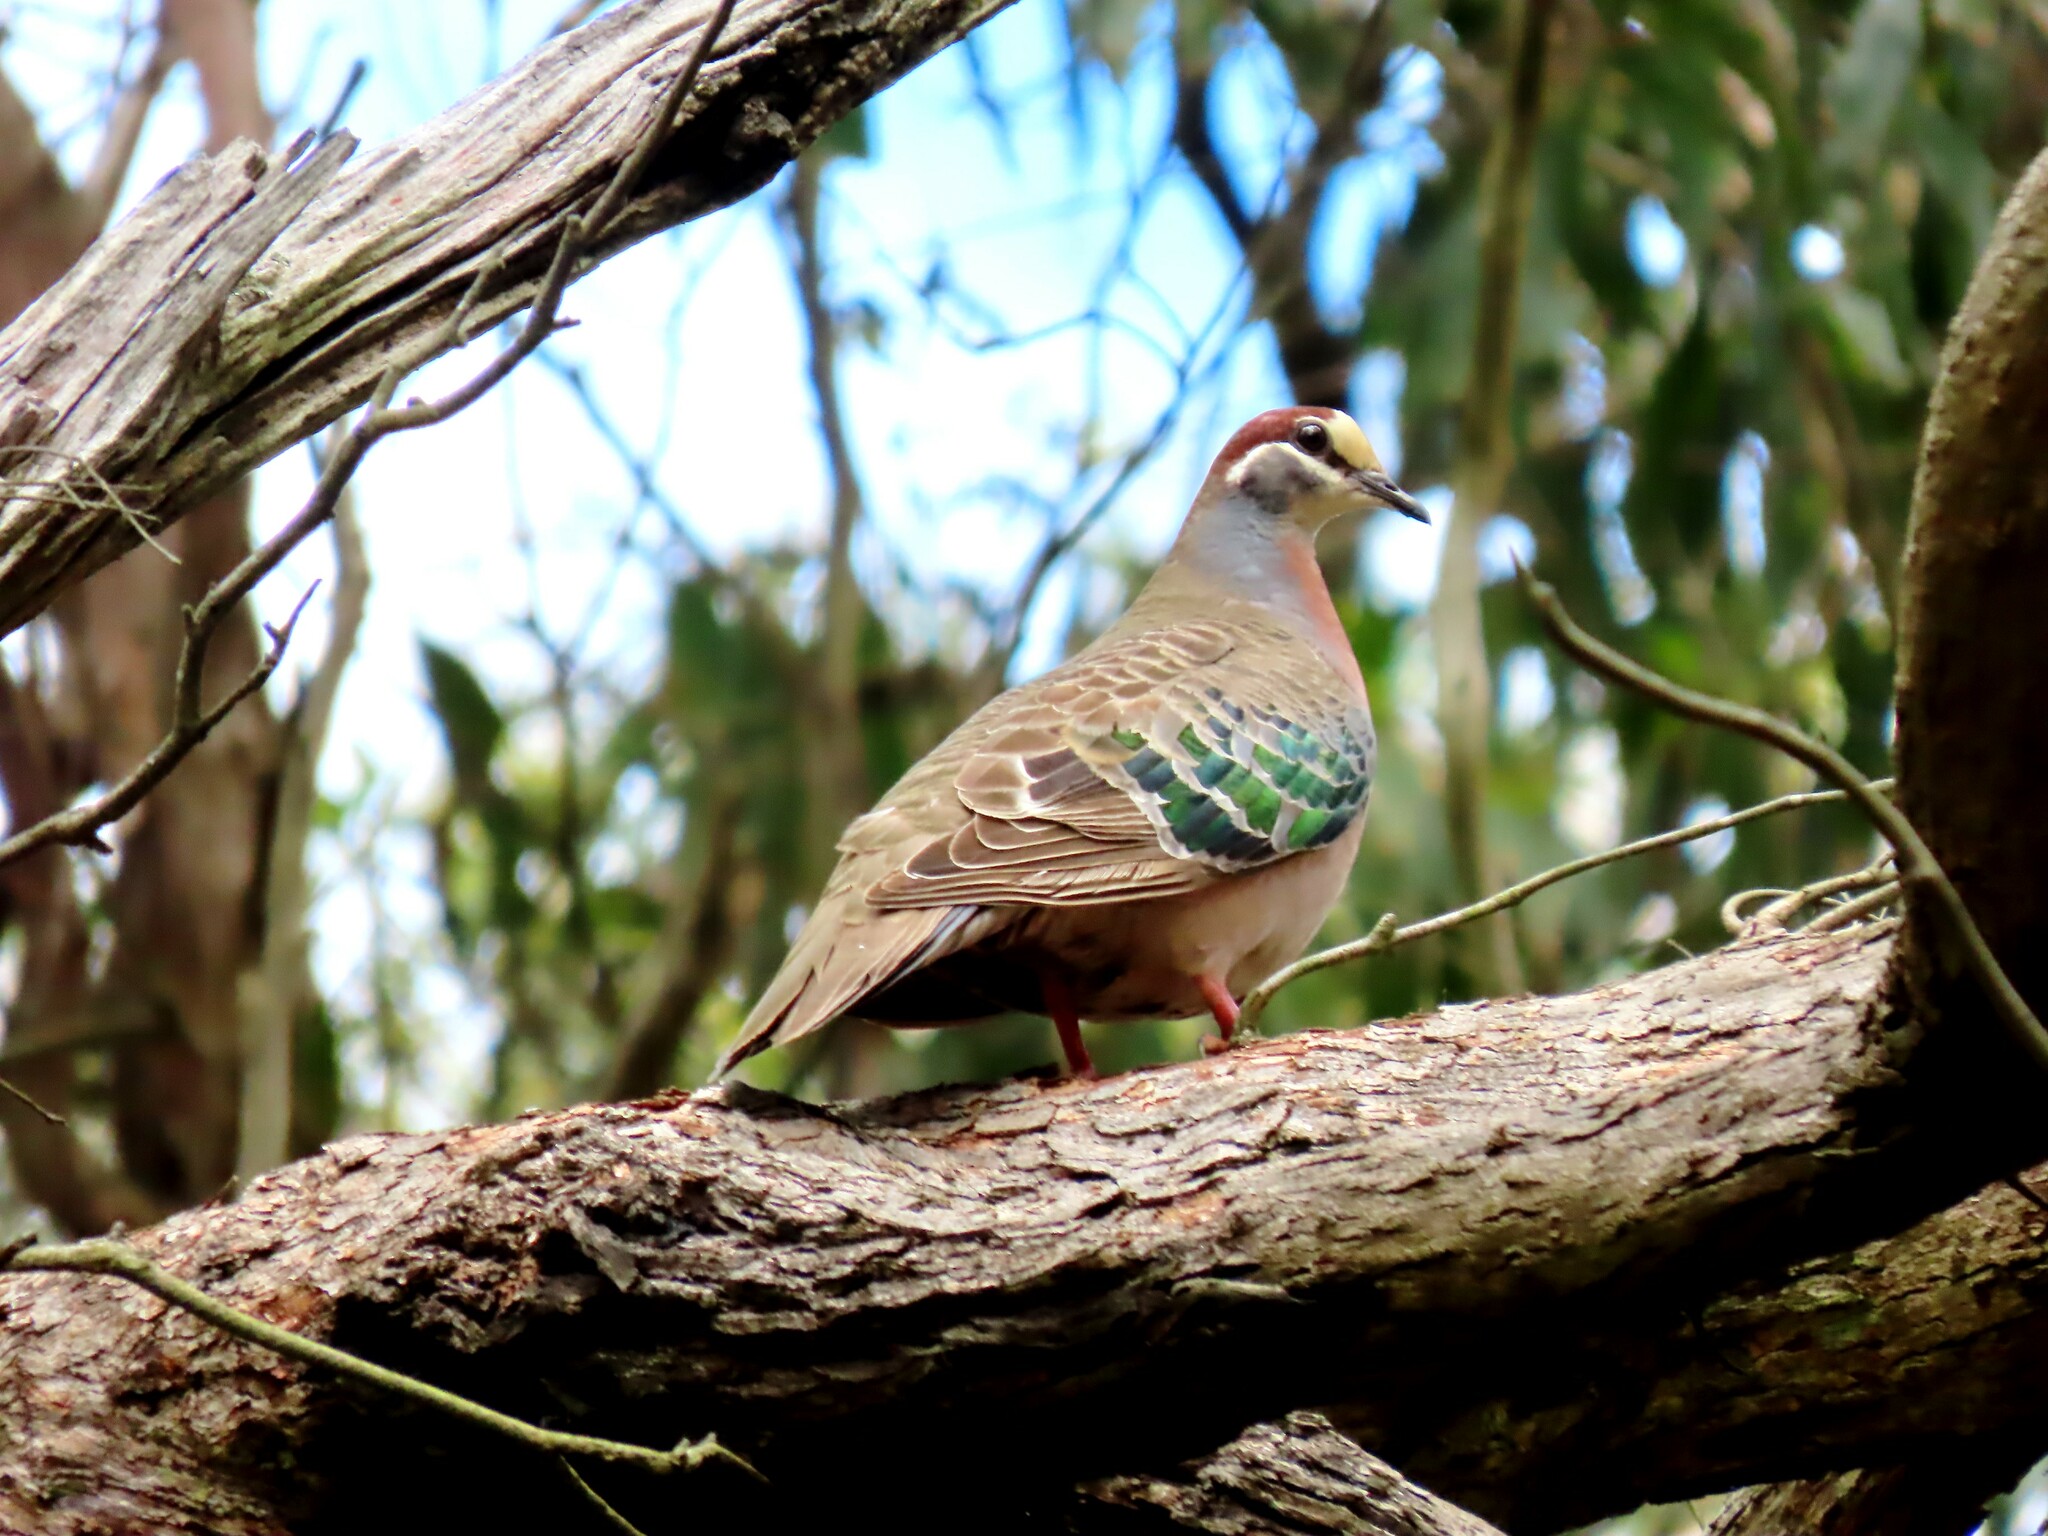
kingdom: Animalia
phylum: Chordata
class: Aves
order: Columbiformes
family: Columbidae
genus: Phaps
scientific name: Phaps chalcoptera
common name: Common bronzewing
